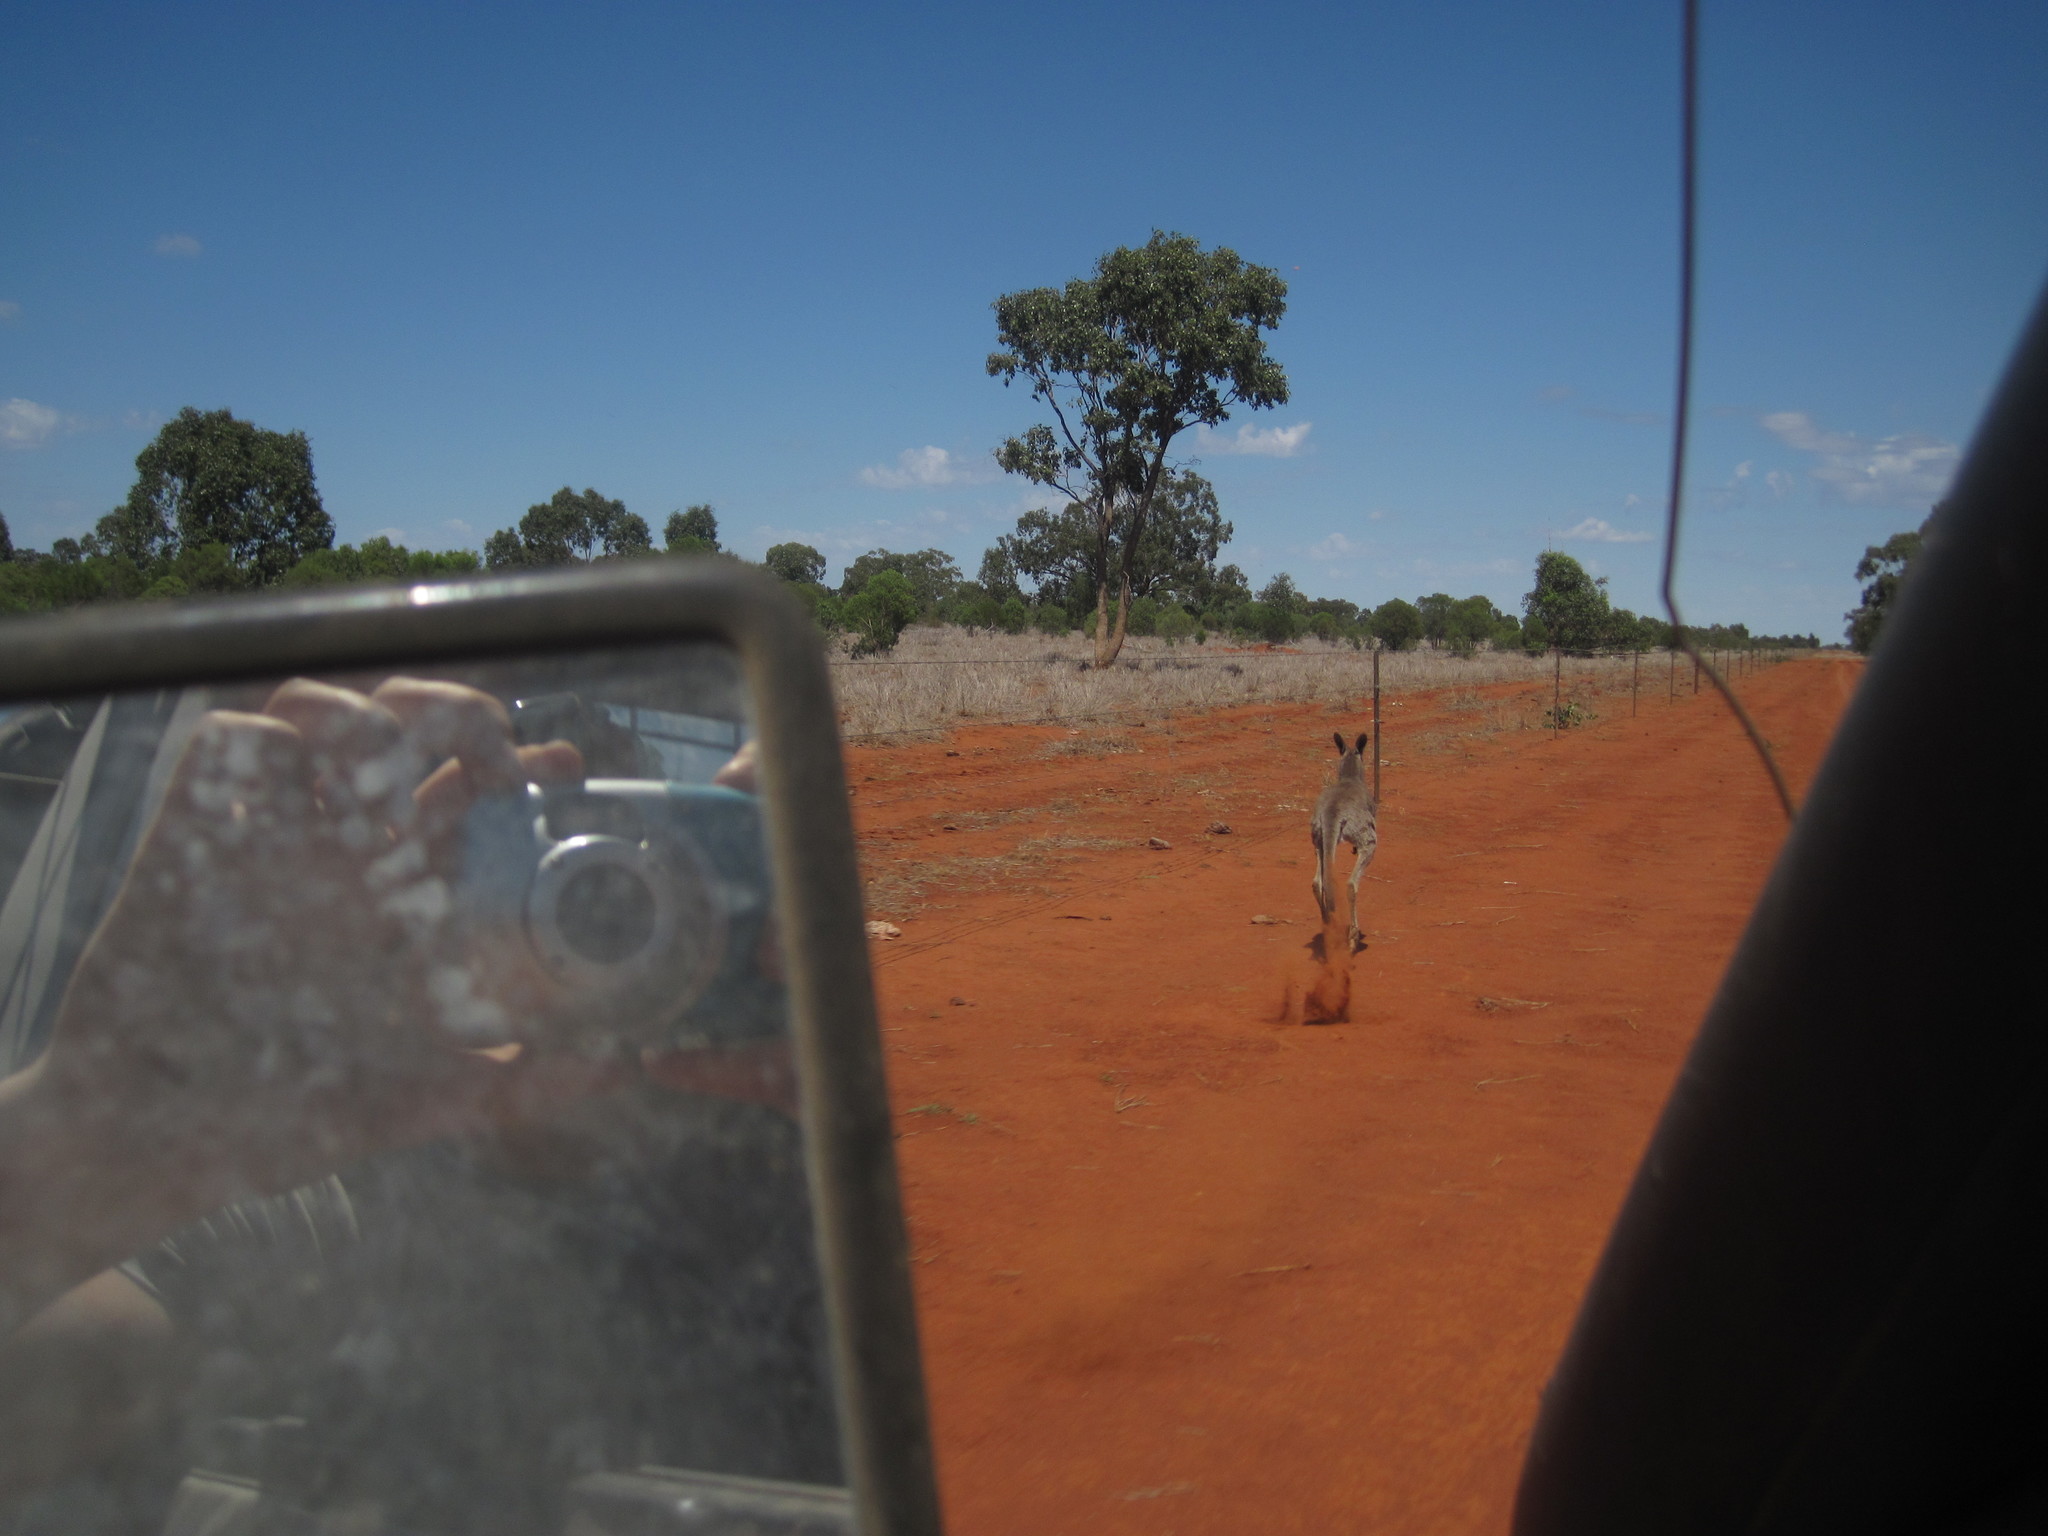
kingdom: Animalia
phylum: Chordata
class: Mammalia
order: Diprotodontia
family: Macropodidae
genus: Macropus
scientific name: Macropus giganteus
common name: Eastern grey kangaroo
